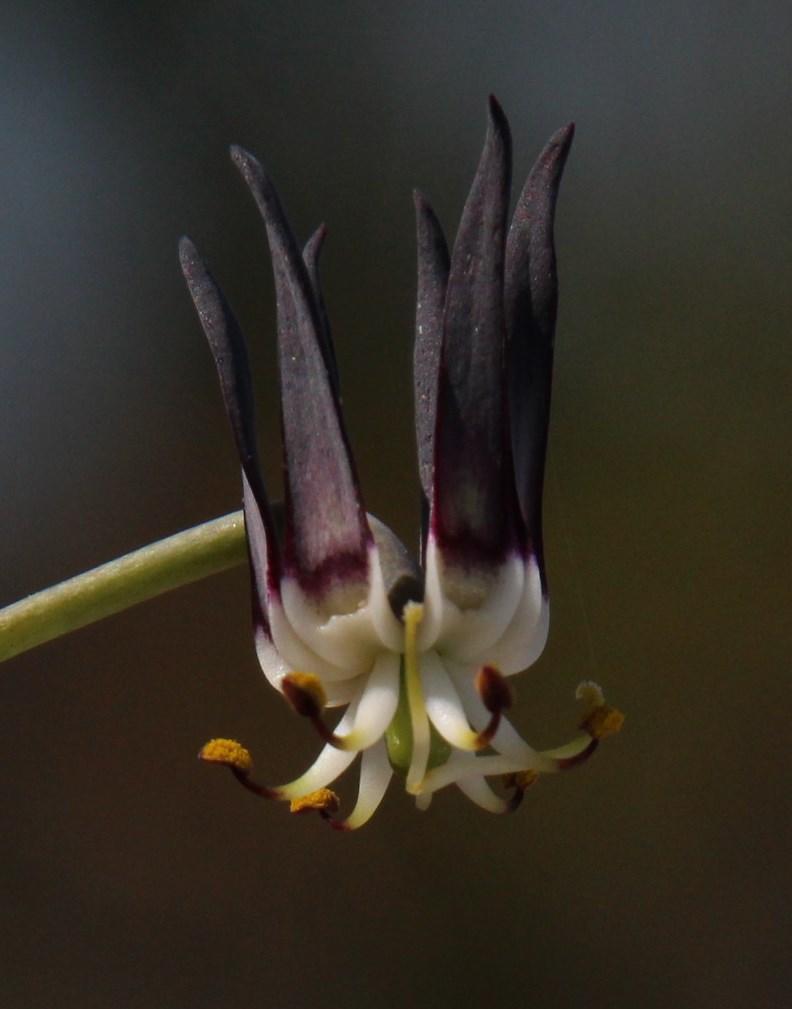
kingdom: Plantae
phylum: Tracheophyta
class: Liliopsida
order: Liliales
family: Colchicaceae
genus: Ornithoglossum
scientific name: Ornithoglossum vulgare
